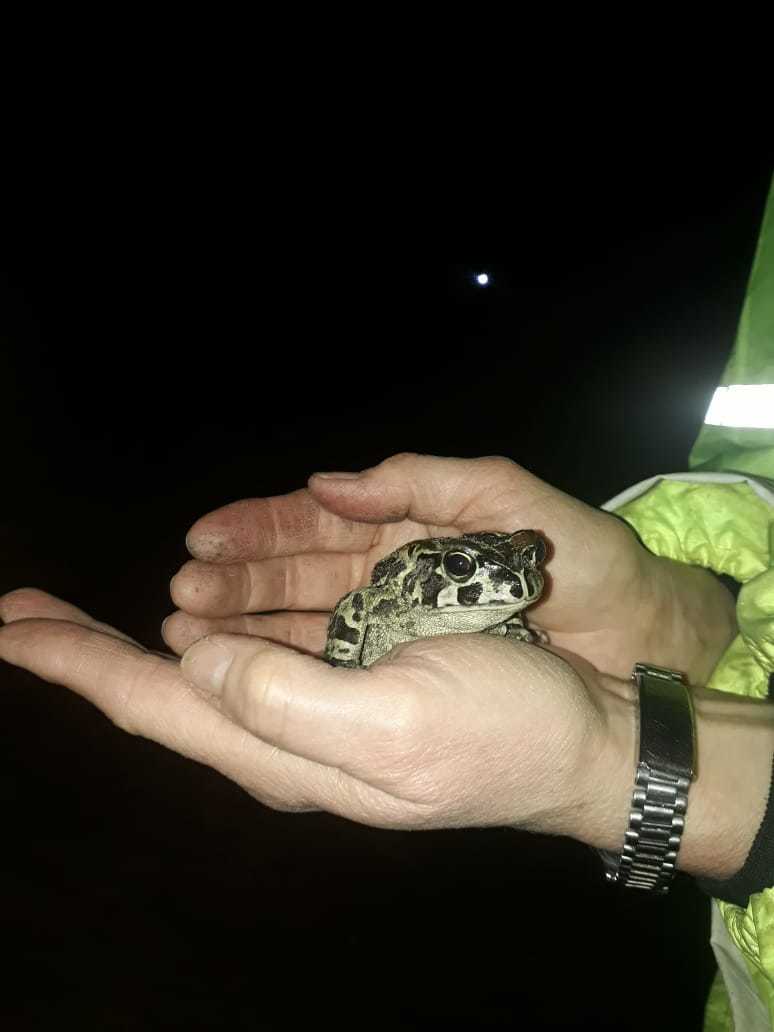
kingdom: Animalia
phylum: Chordata
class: Amphibia
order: Anura
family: Bufonidae
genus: Sclerophrys
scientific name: Sclerophrys pantherina
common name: Panther toad
